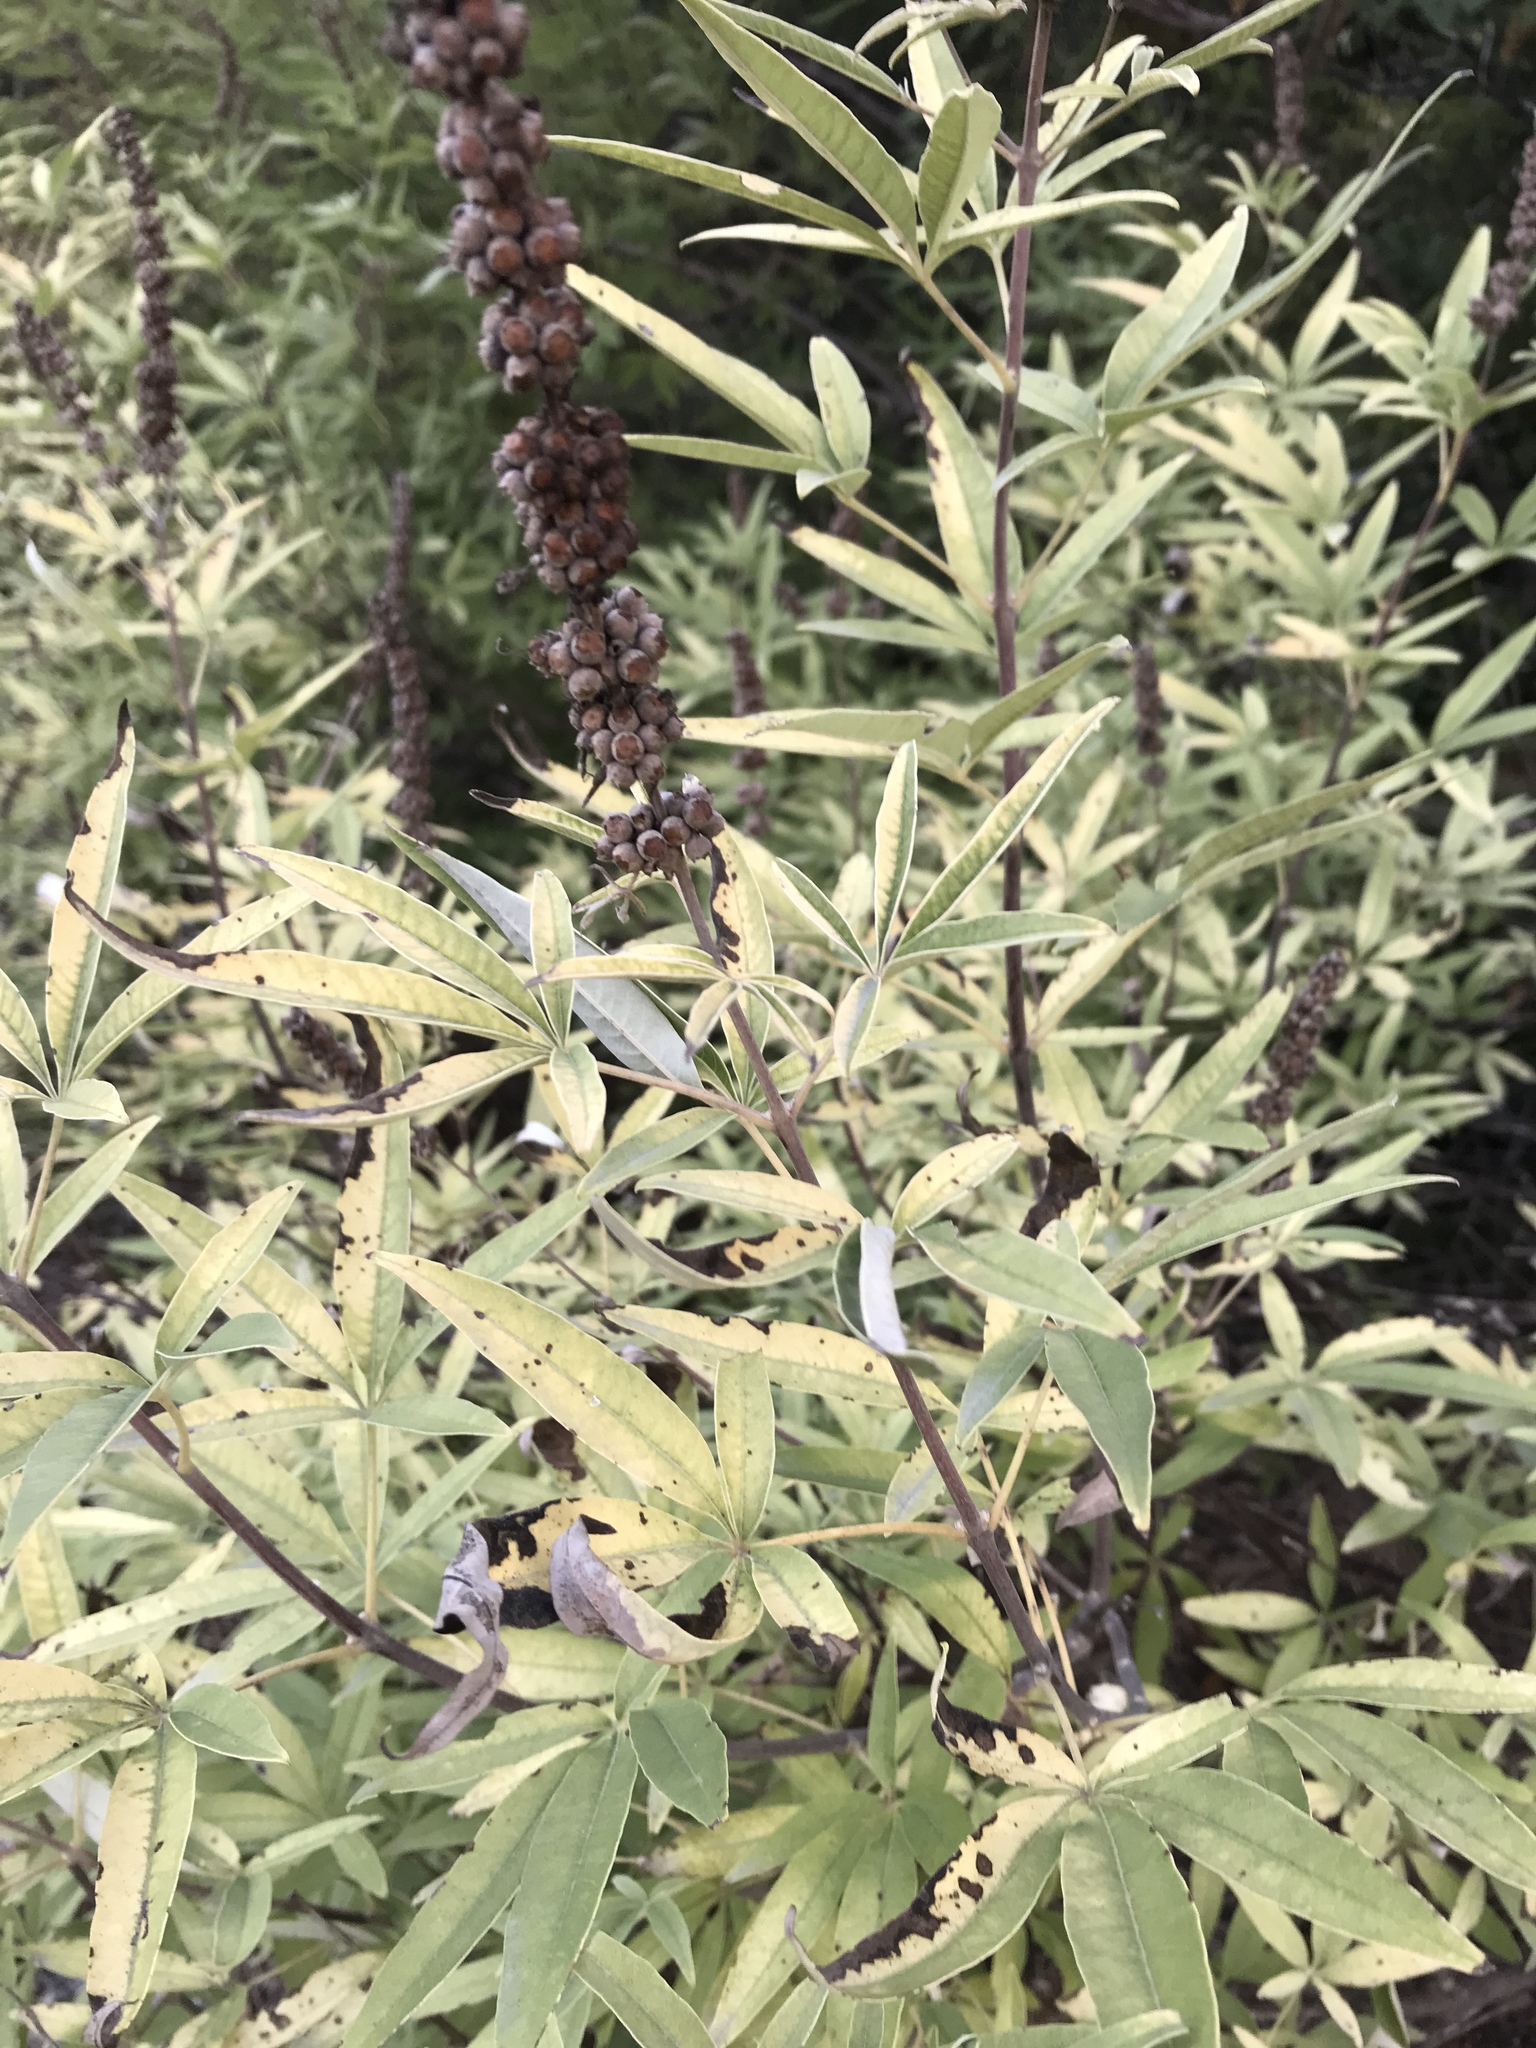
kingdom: Plantae
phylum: Tracheophyta
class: Magnoliopsida
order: Lamiales
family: Lamiaceae
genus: Vitex
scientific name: Vitex agnus-castus
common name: Chasteberry
